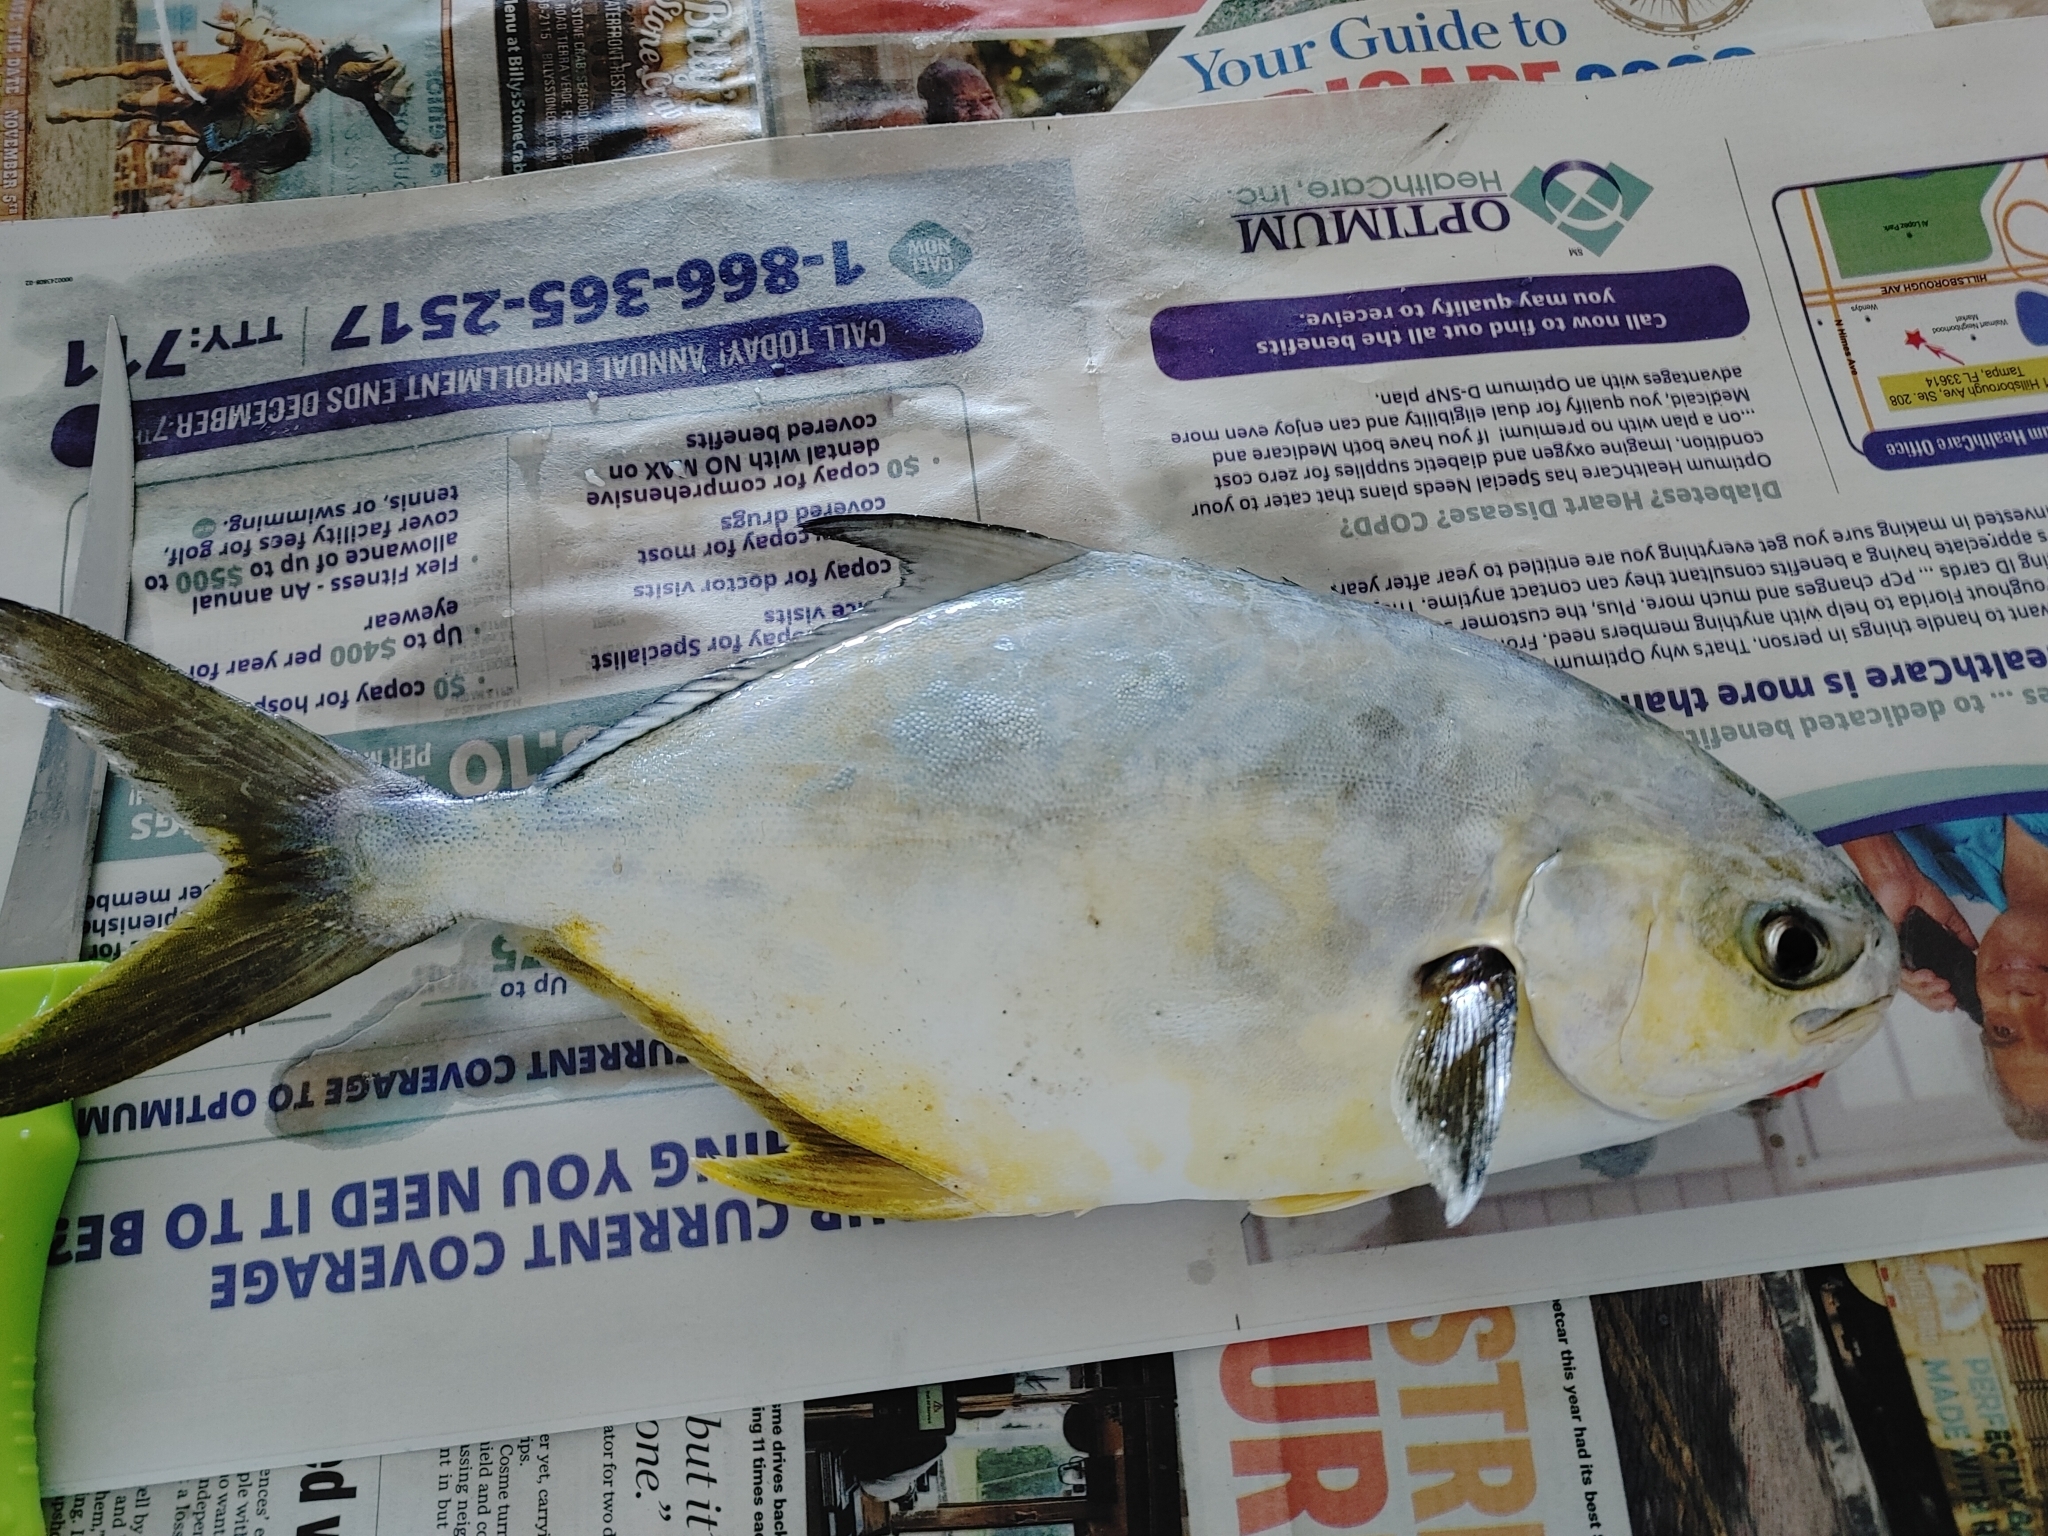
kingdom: Animalia
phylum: Chordata
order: Perciformes
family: Carangidae
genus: Trachinotus
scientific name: Trachinotus carolinus
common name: Florida pompano
